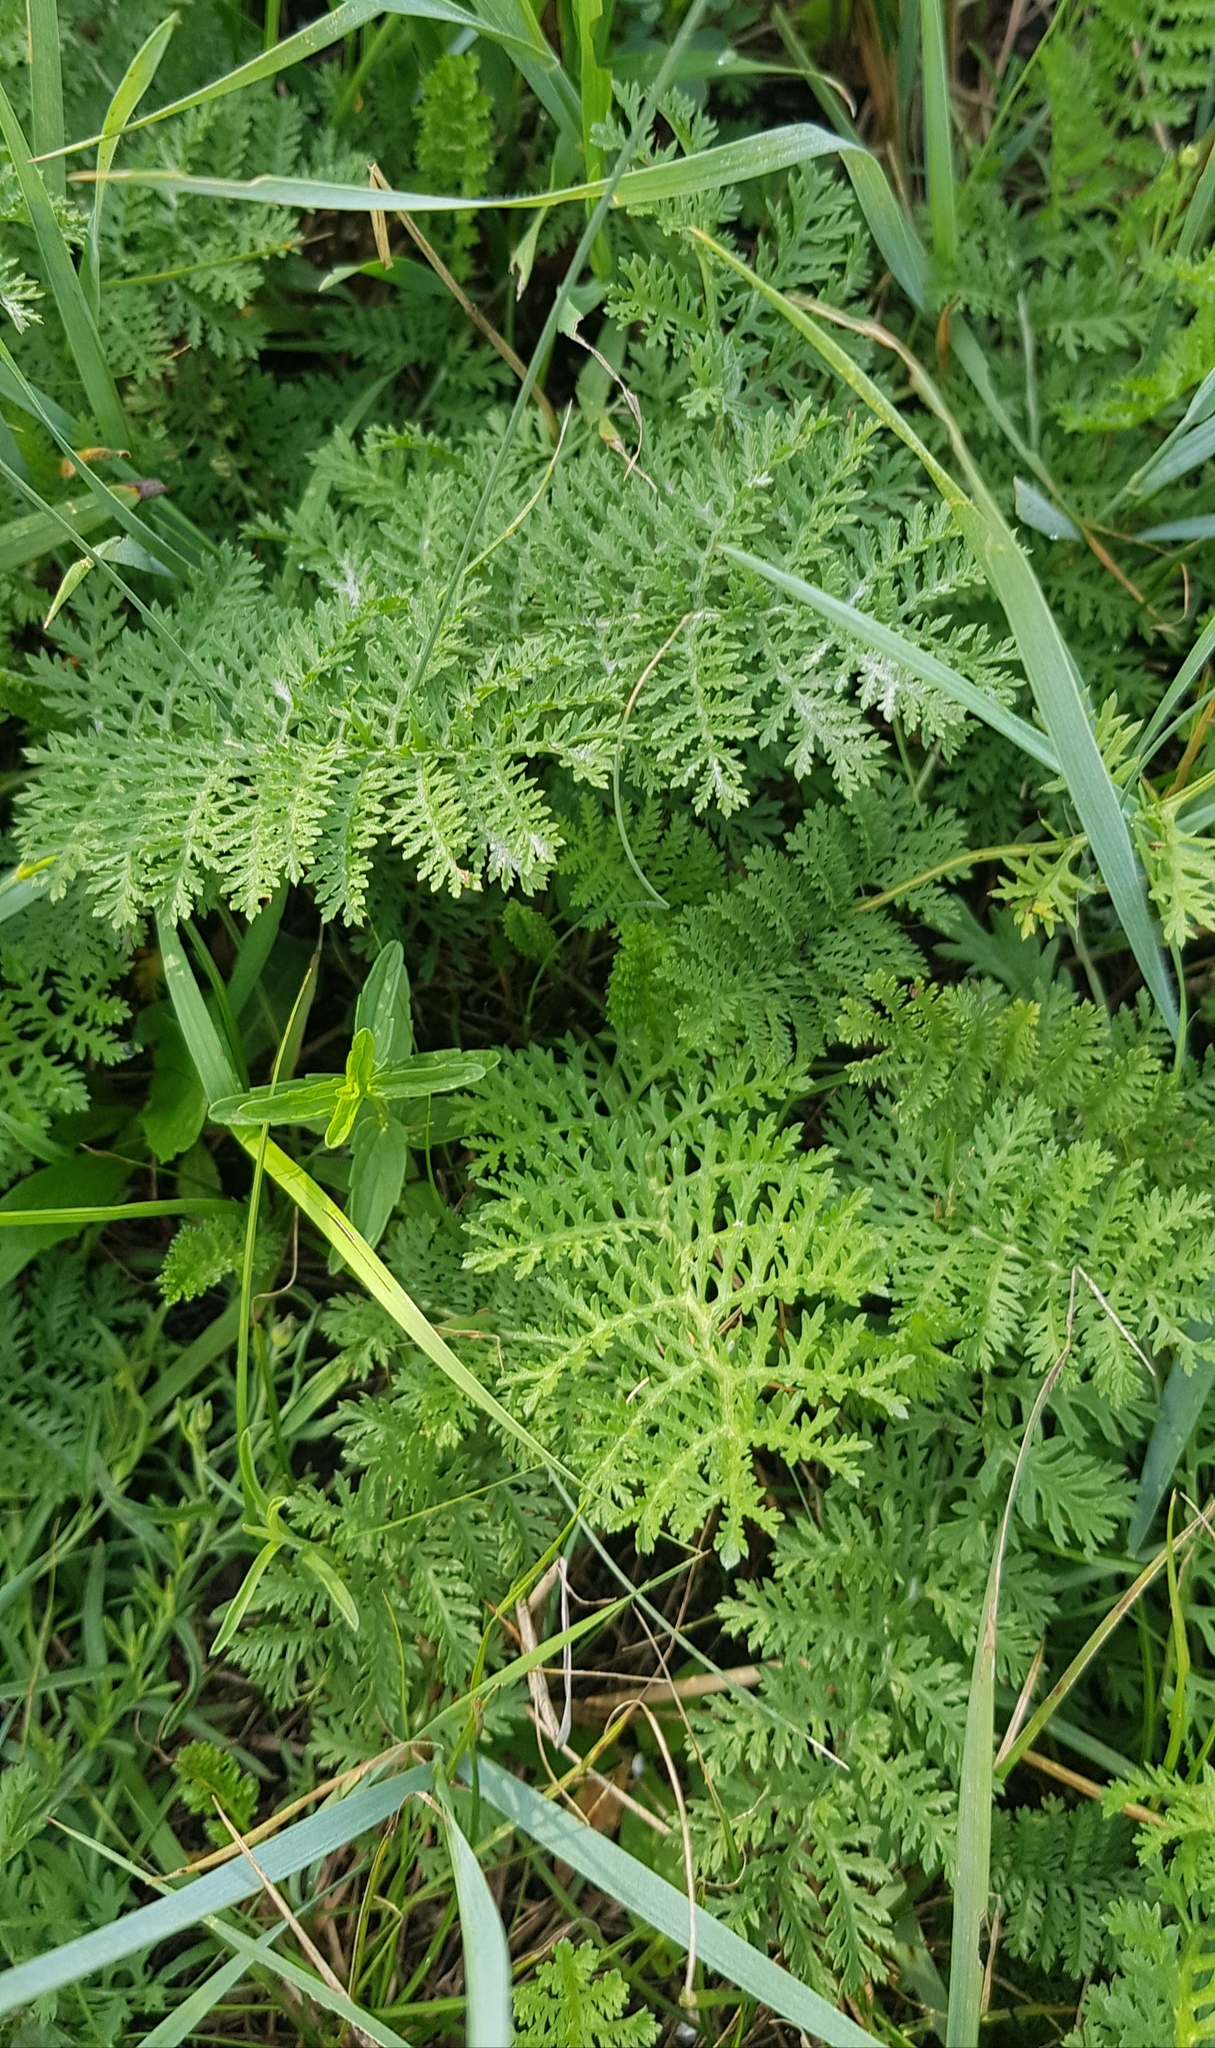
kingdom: Plantae
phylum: Tracheophyta
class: Magnoliopsida
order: Asterales
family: Asteraceae
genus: Artemisia
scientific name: Artemisia tanacetifolia
